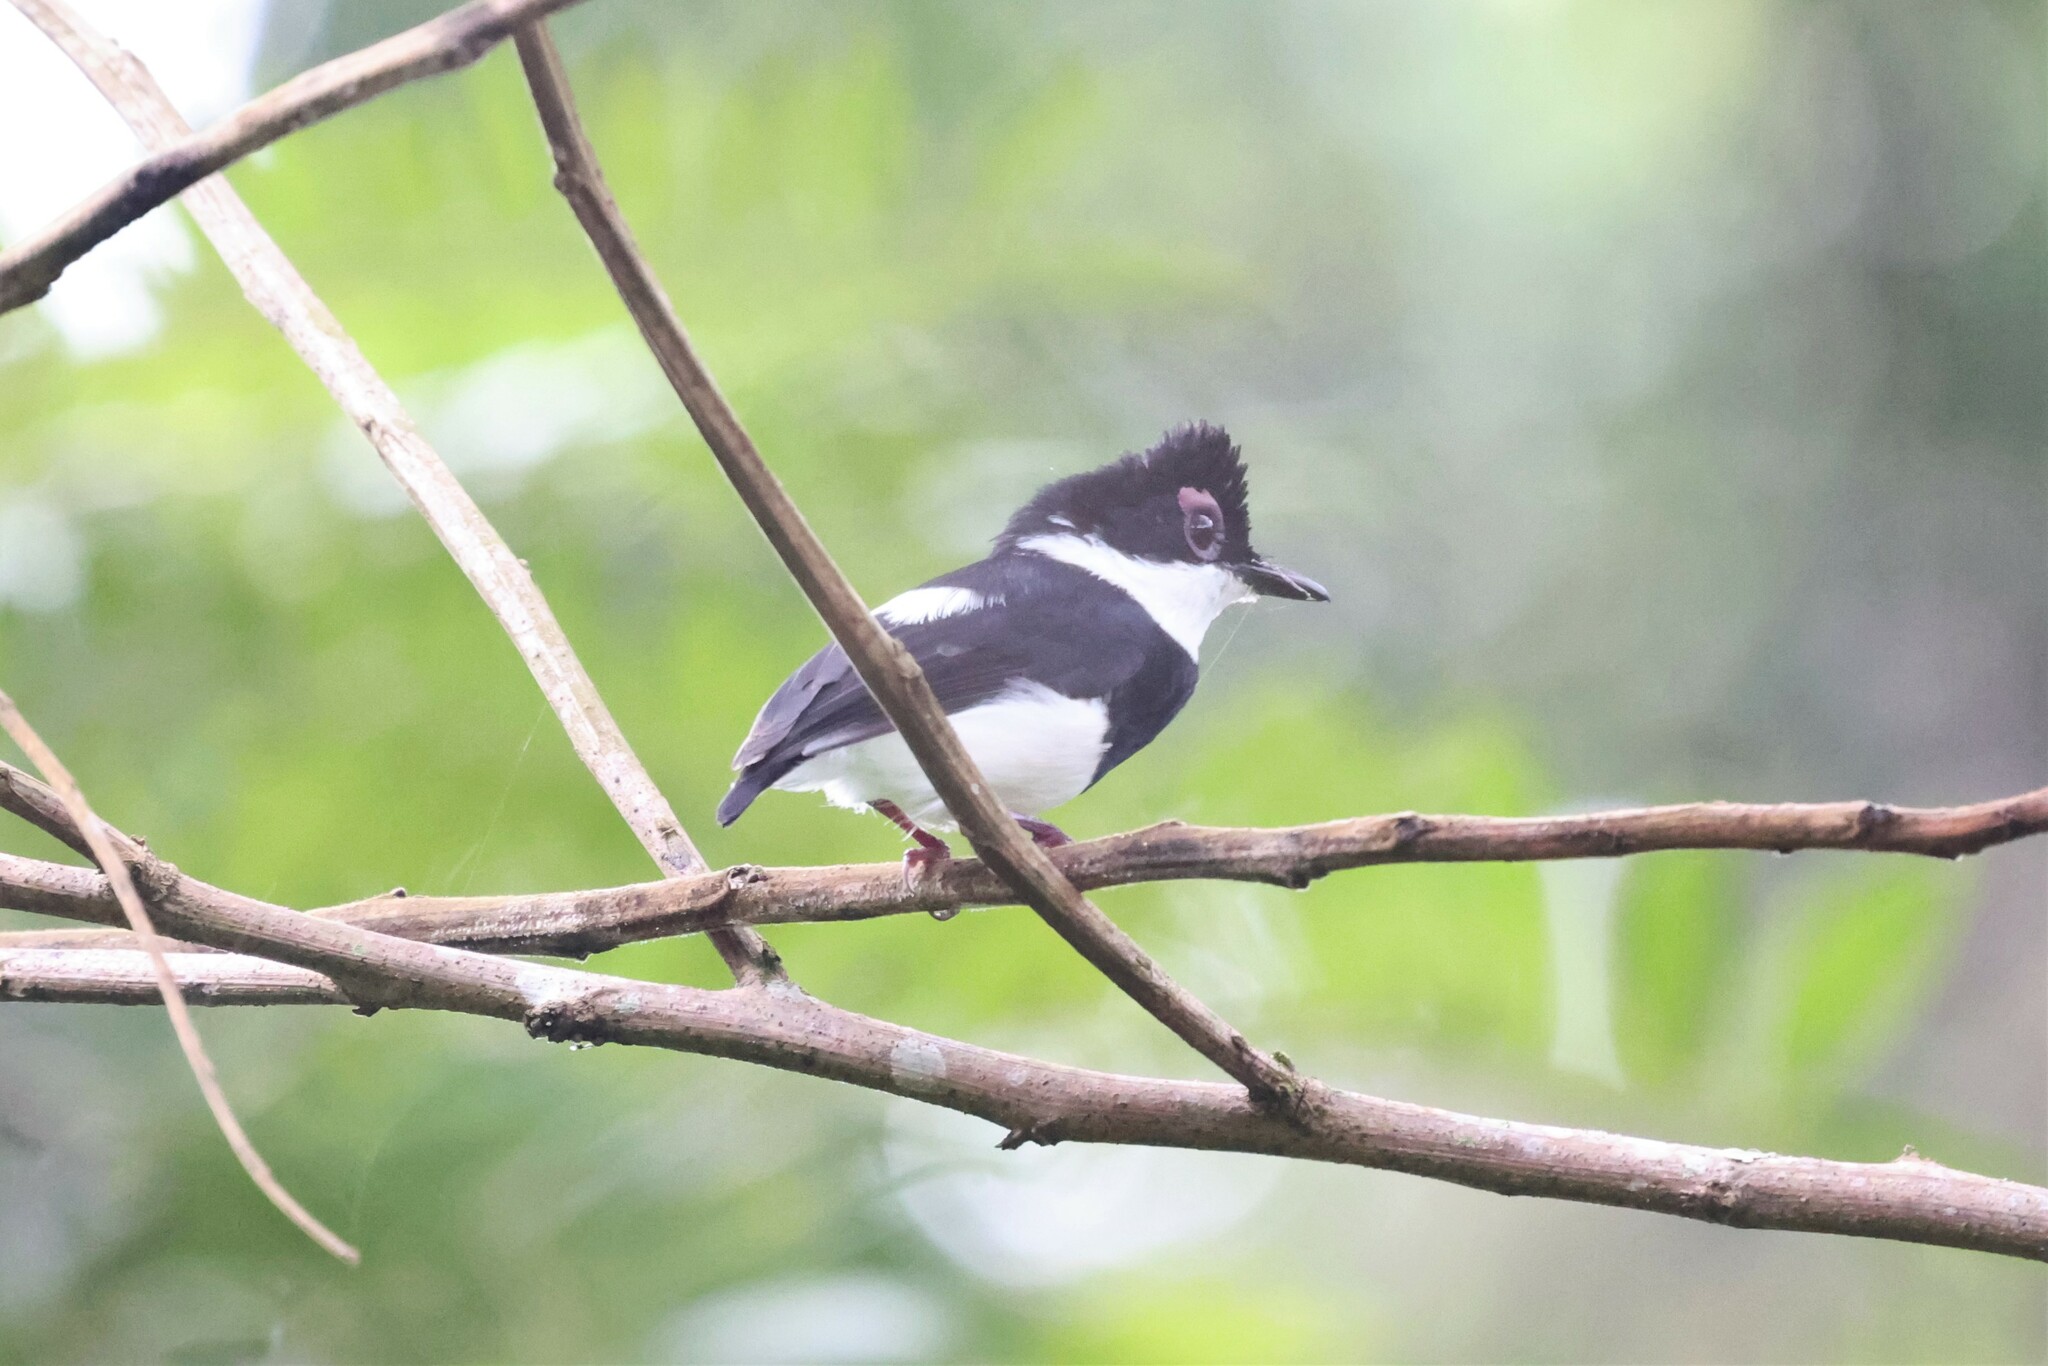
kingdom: Animalia
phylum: Chordata
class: Aves
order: Passeriformes
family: Platysteiridae
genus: Platysteira
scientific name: Platysteira castanea
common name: Chestnut wattle-eye
